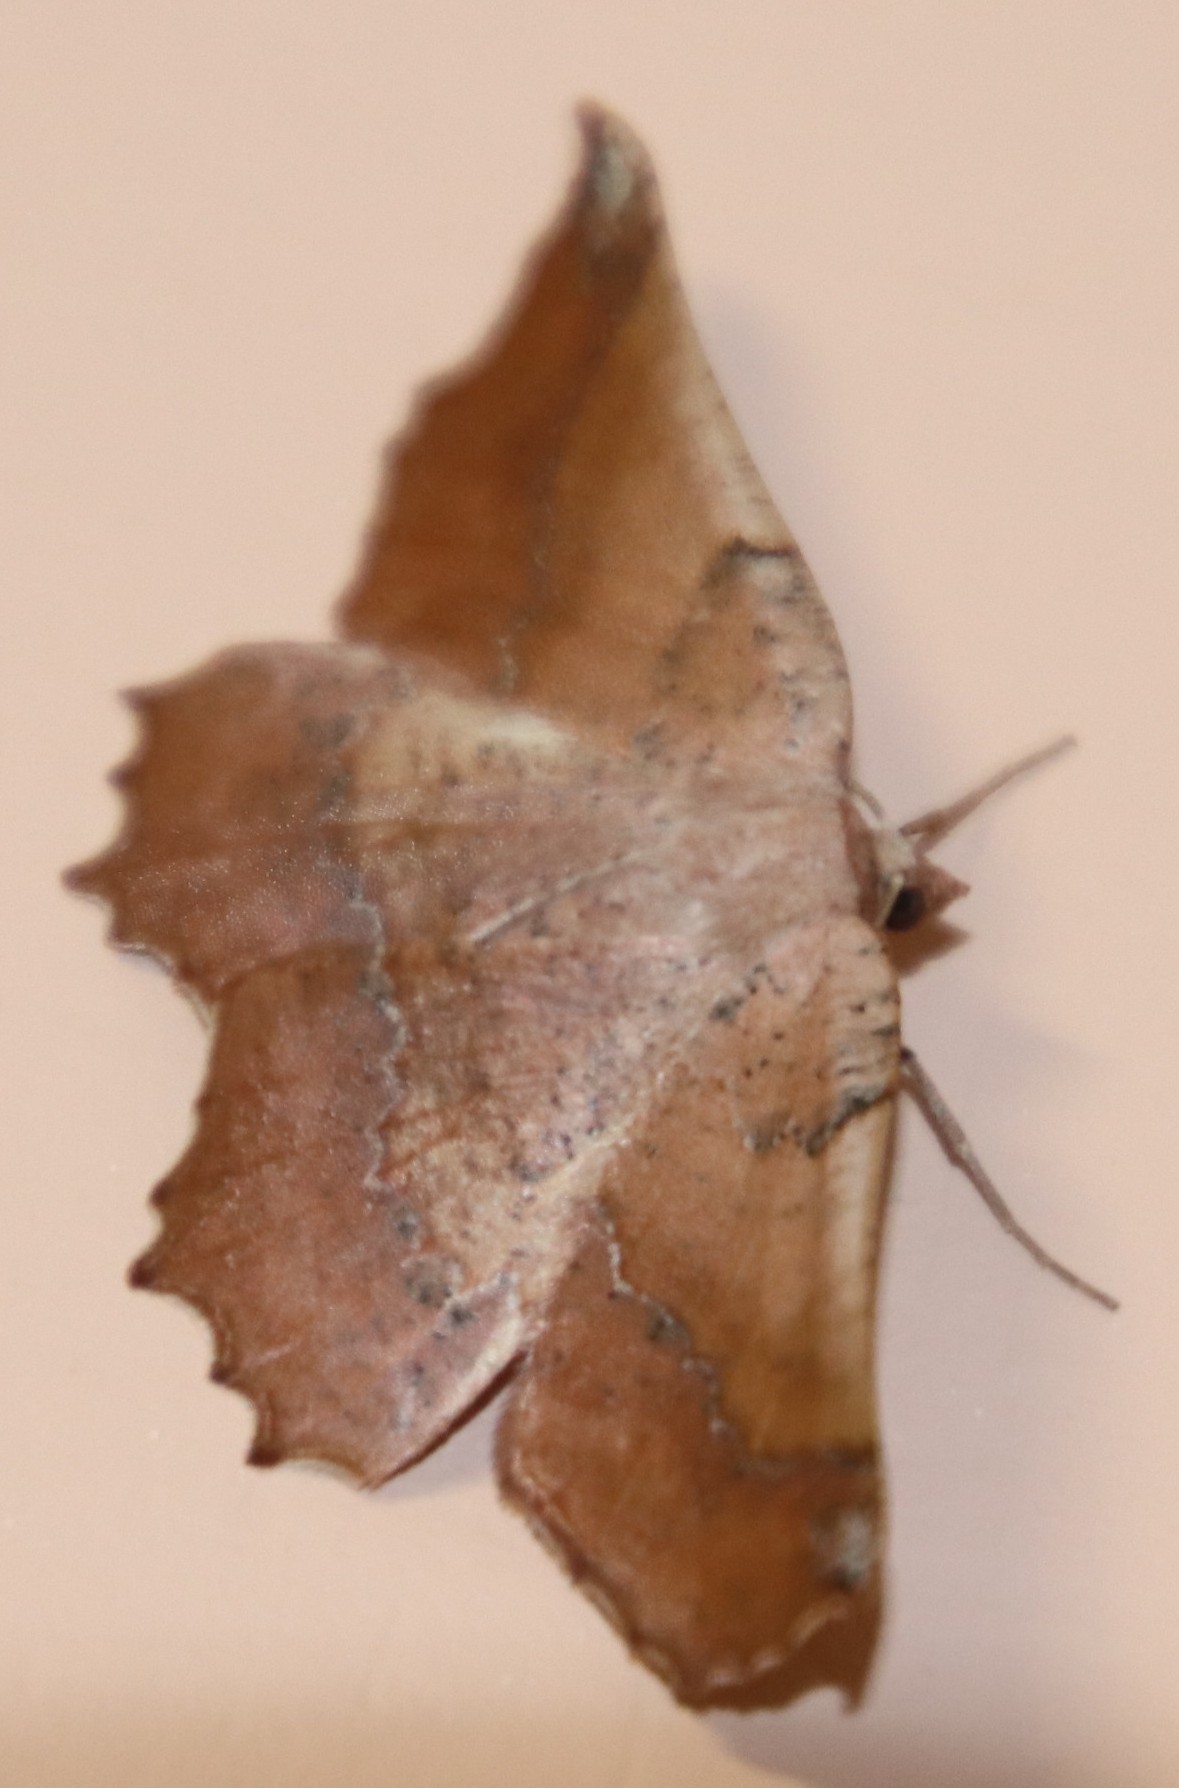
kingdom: Animalia
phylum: Arthropoda
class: Insecta
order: Lepidoptera
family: Geometridae
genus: Drepanogynis
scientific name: Drepanogynis mixtaria
